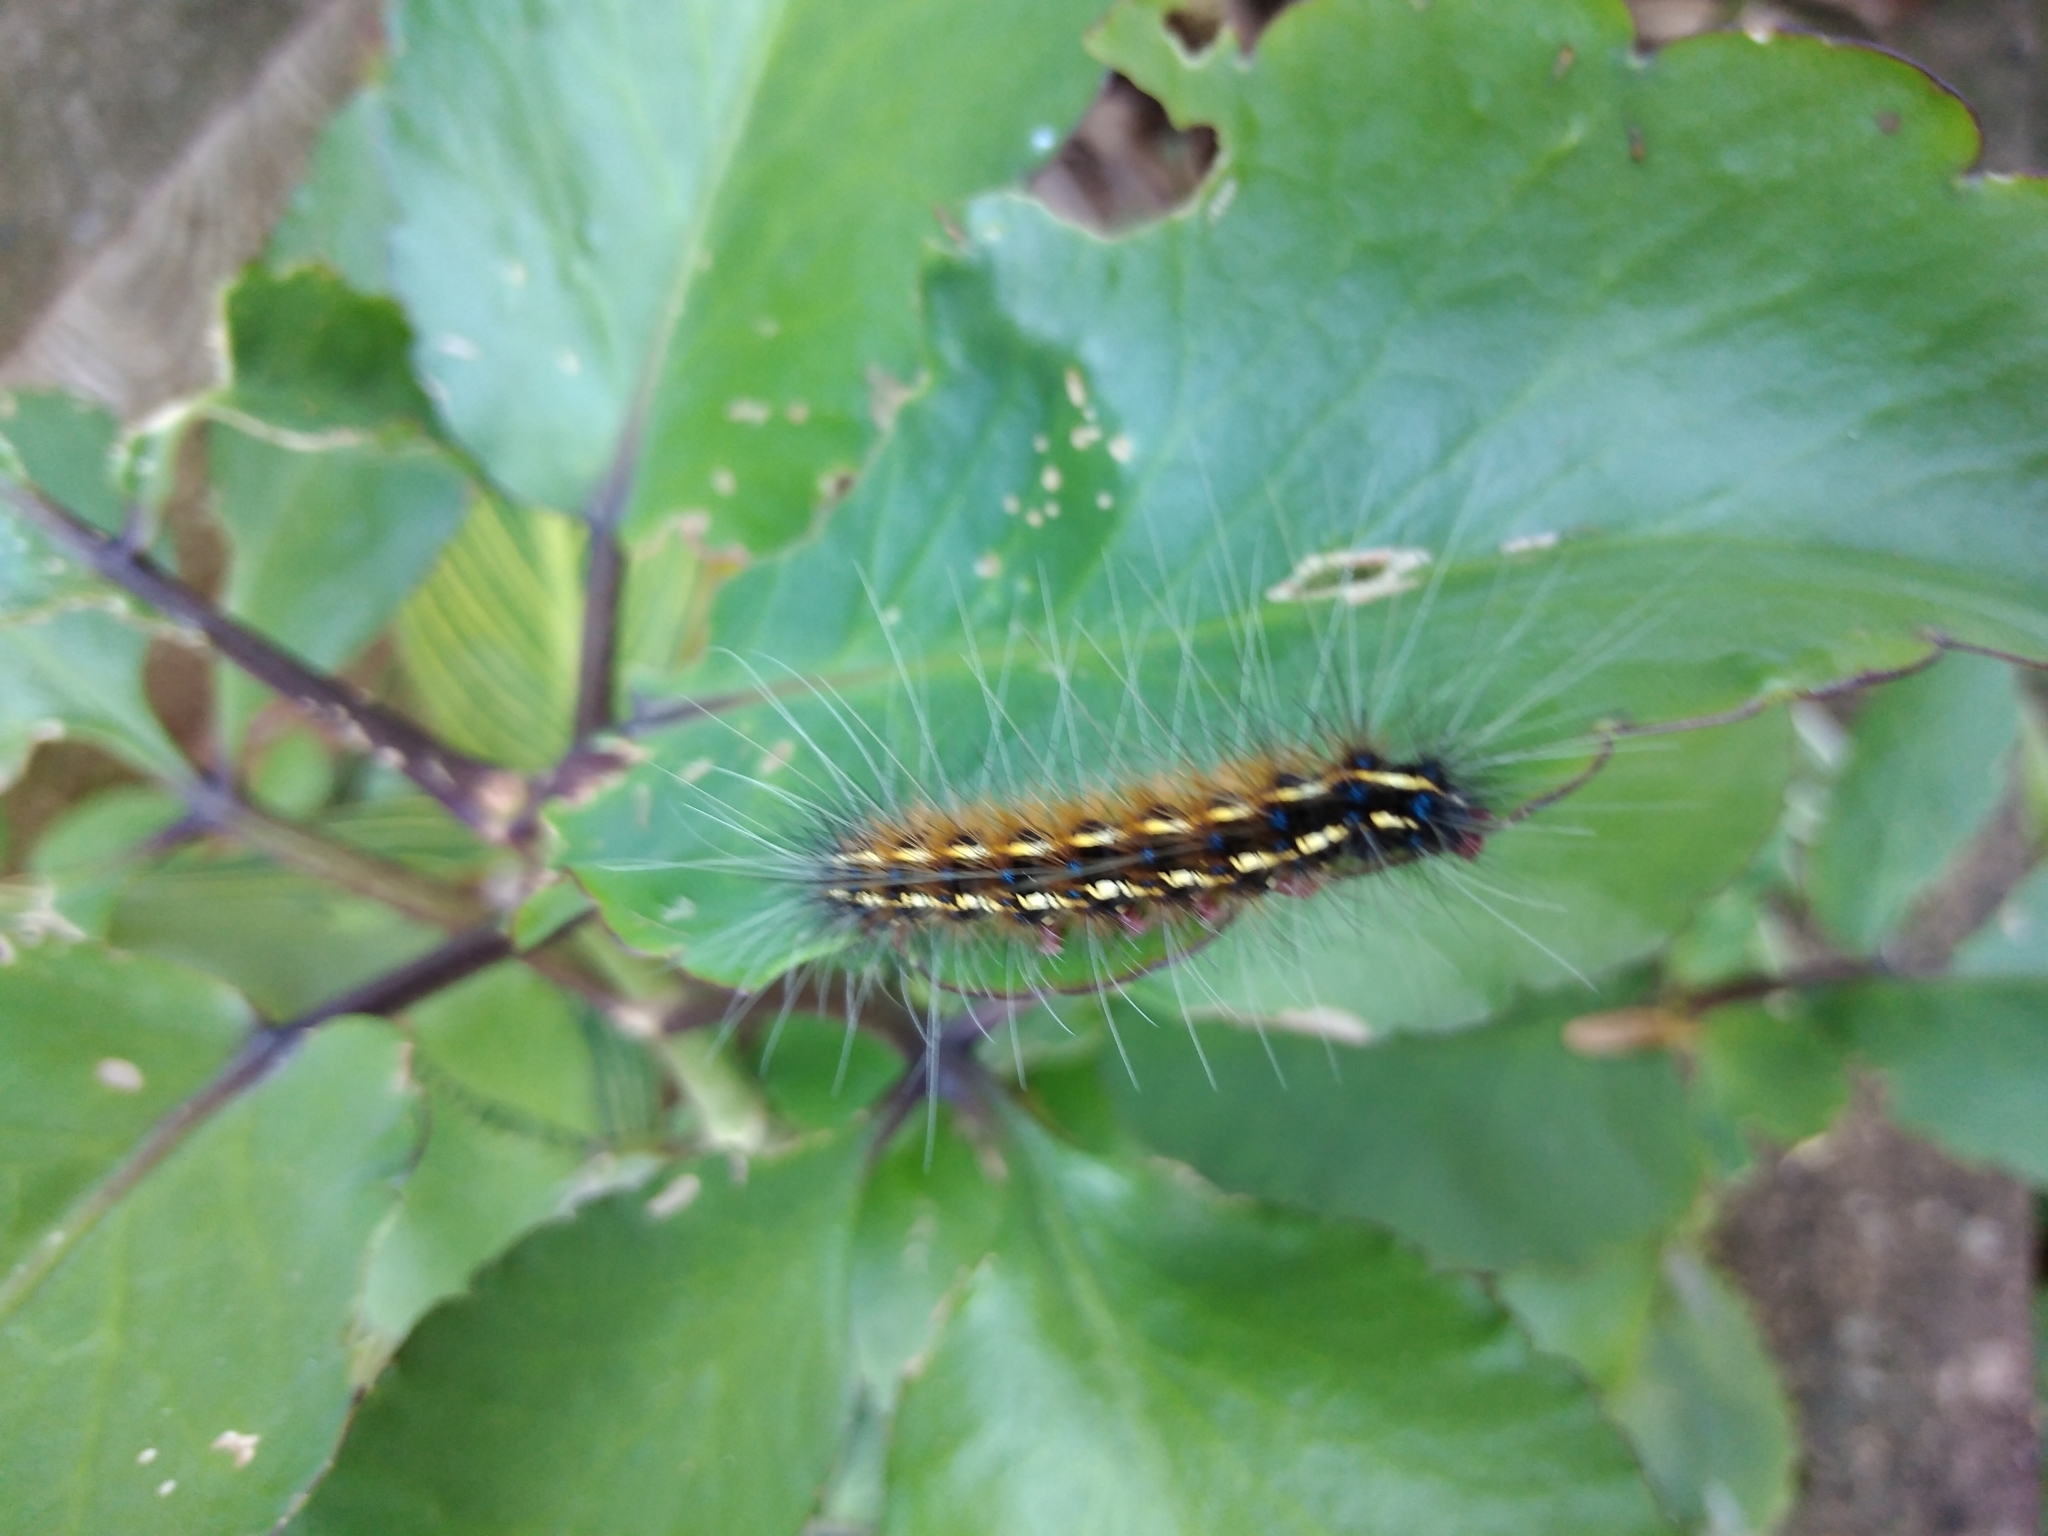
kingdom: Animalia
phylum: Arthropoda
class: Insecta
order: Lepidoptera
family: Erebidae
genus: Leucaloa
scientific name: Leucaloa eugraphica
